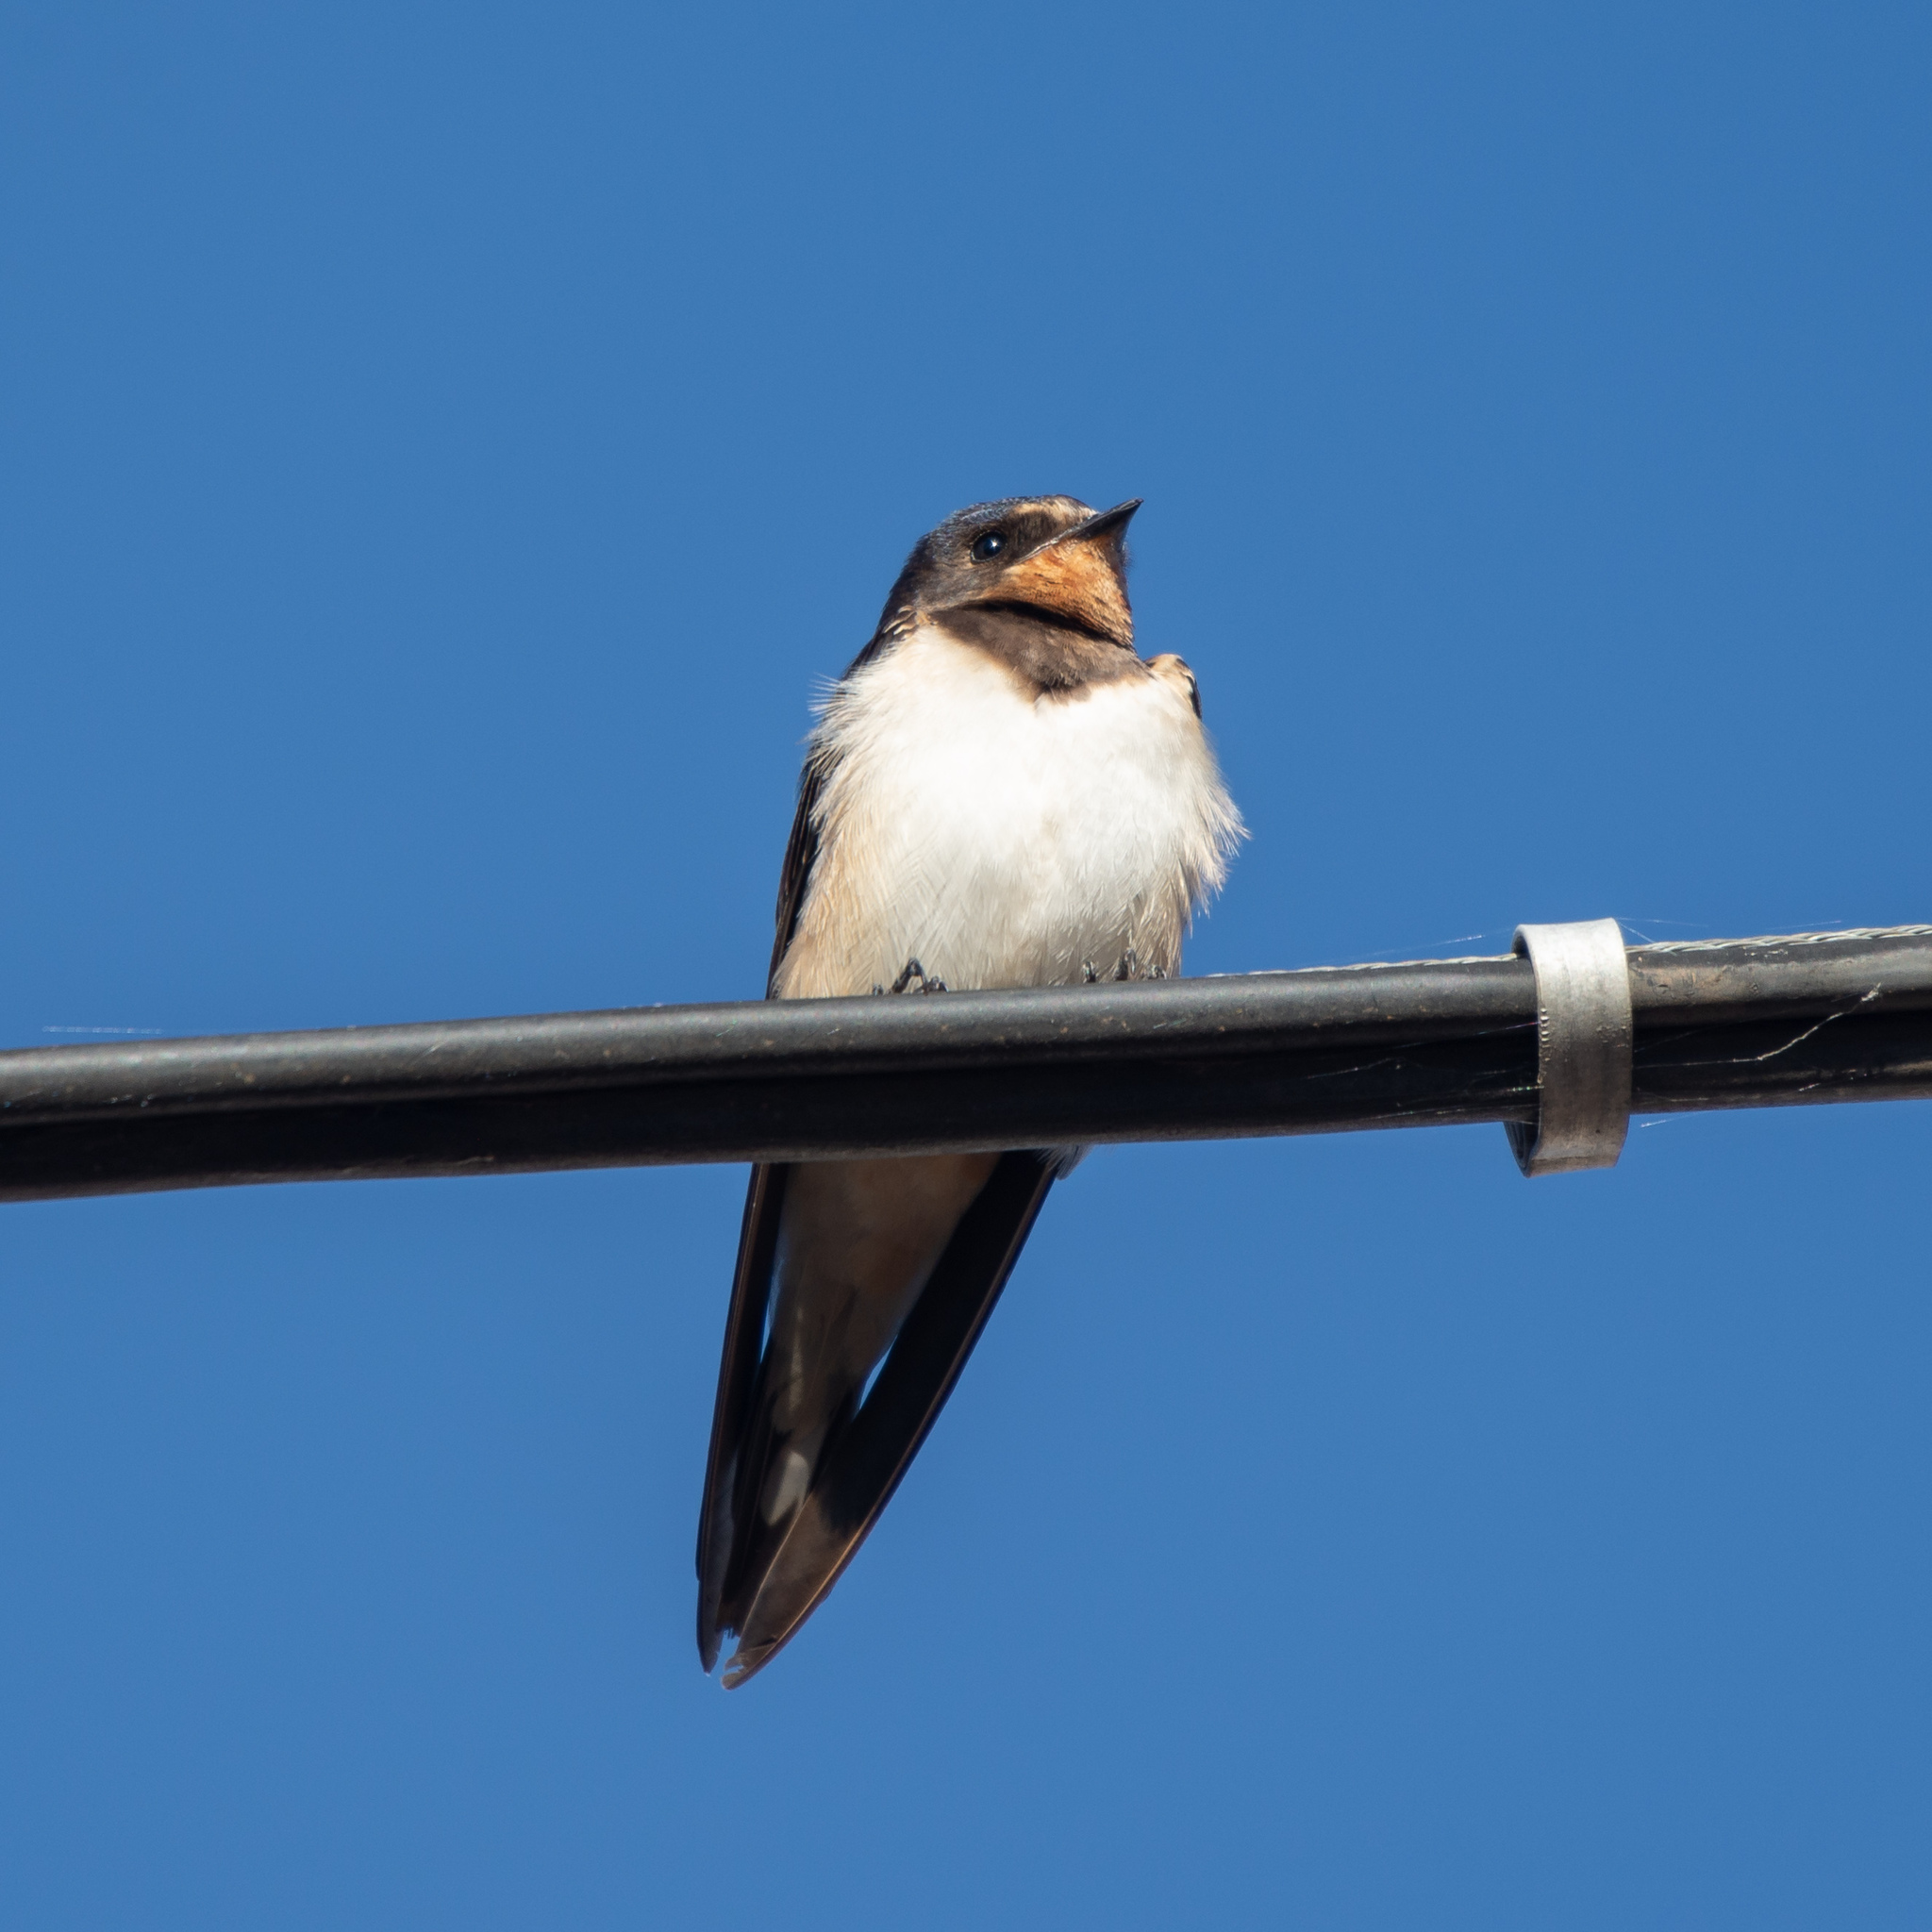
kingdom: Animalia
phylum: Chordata
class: Aves
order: Passeriformes
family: Hirundinidae
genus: Hirundo
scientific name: Hirundo rustica
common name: Barn swallow
